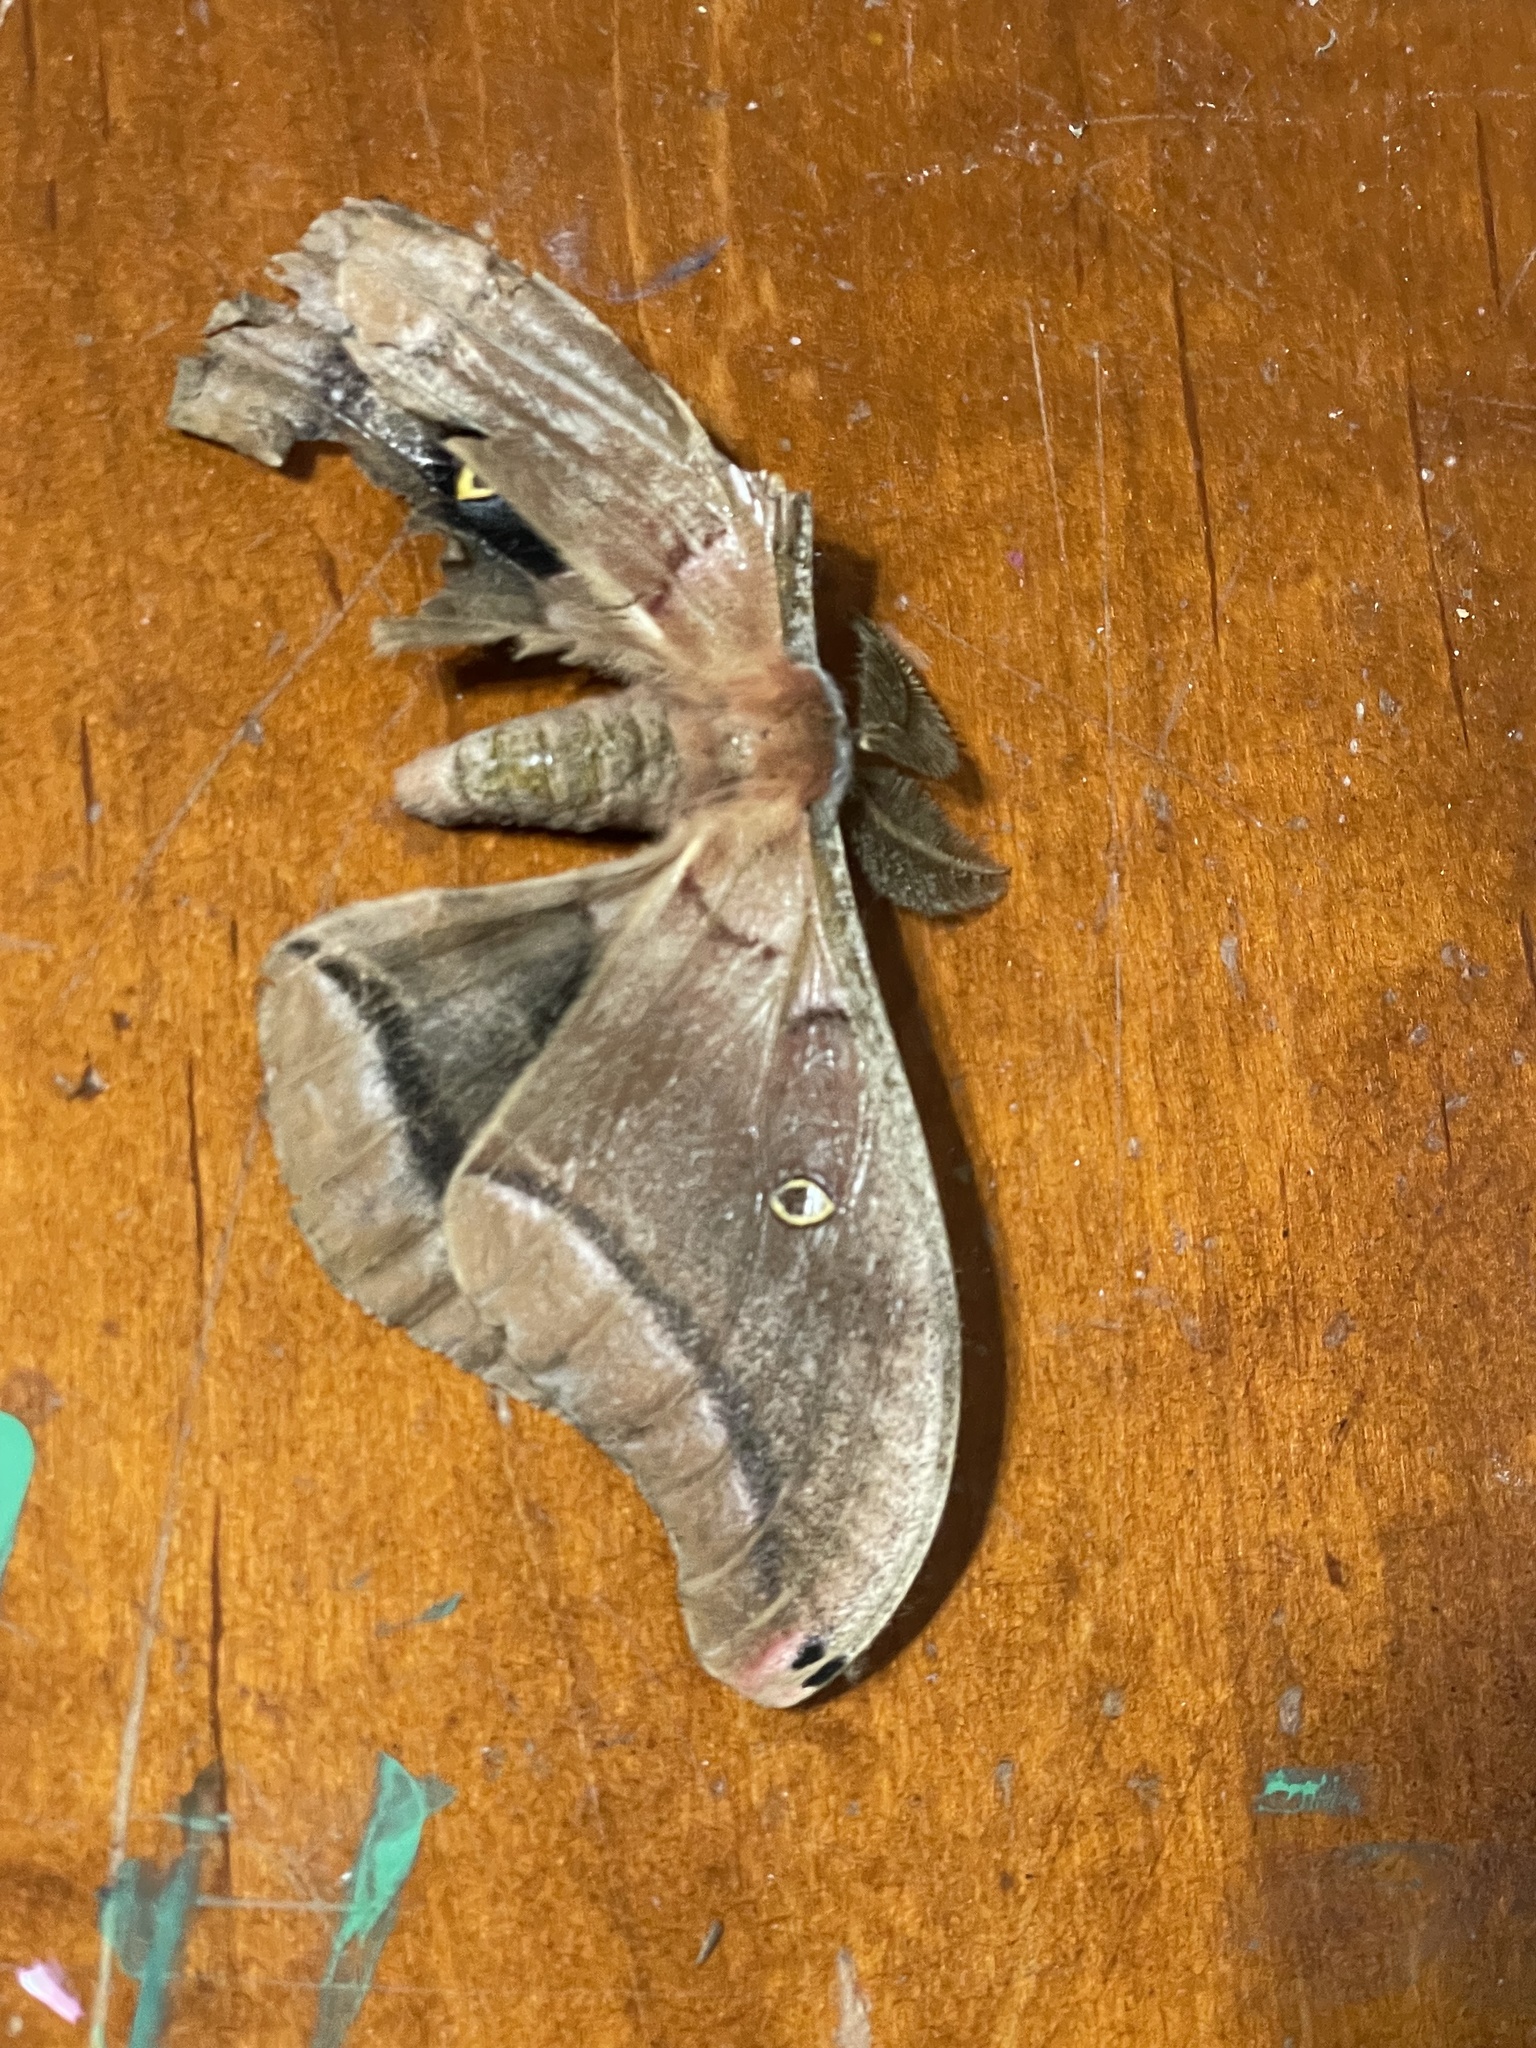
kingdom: Animalia
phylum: Arthropoda
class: Insecta
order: Lepidoptera
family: Saturniidae
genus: Antheraea
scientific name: Antheraea polyphemus
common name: Polyphemus moth
